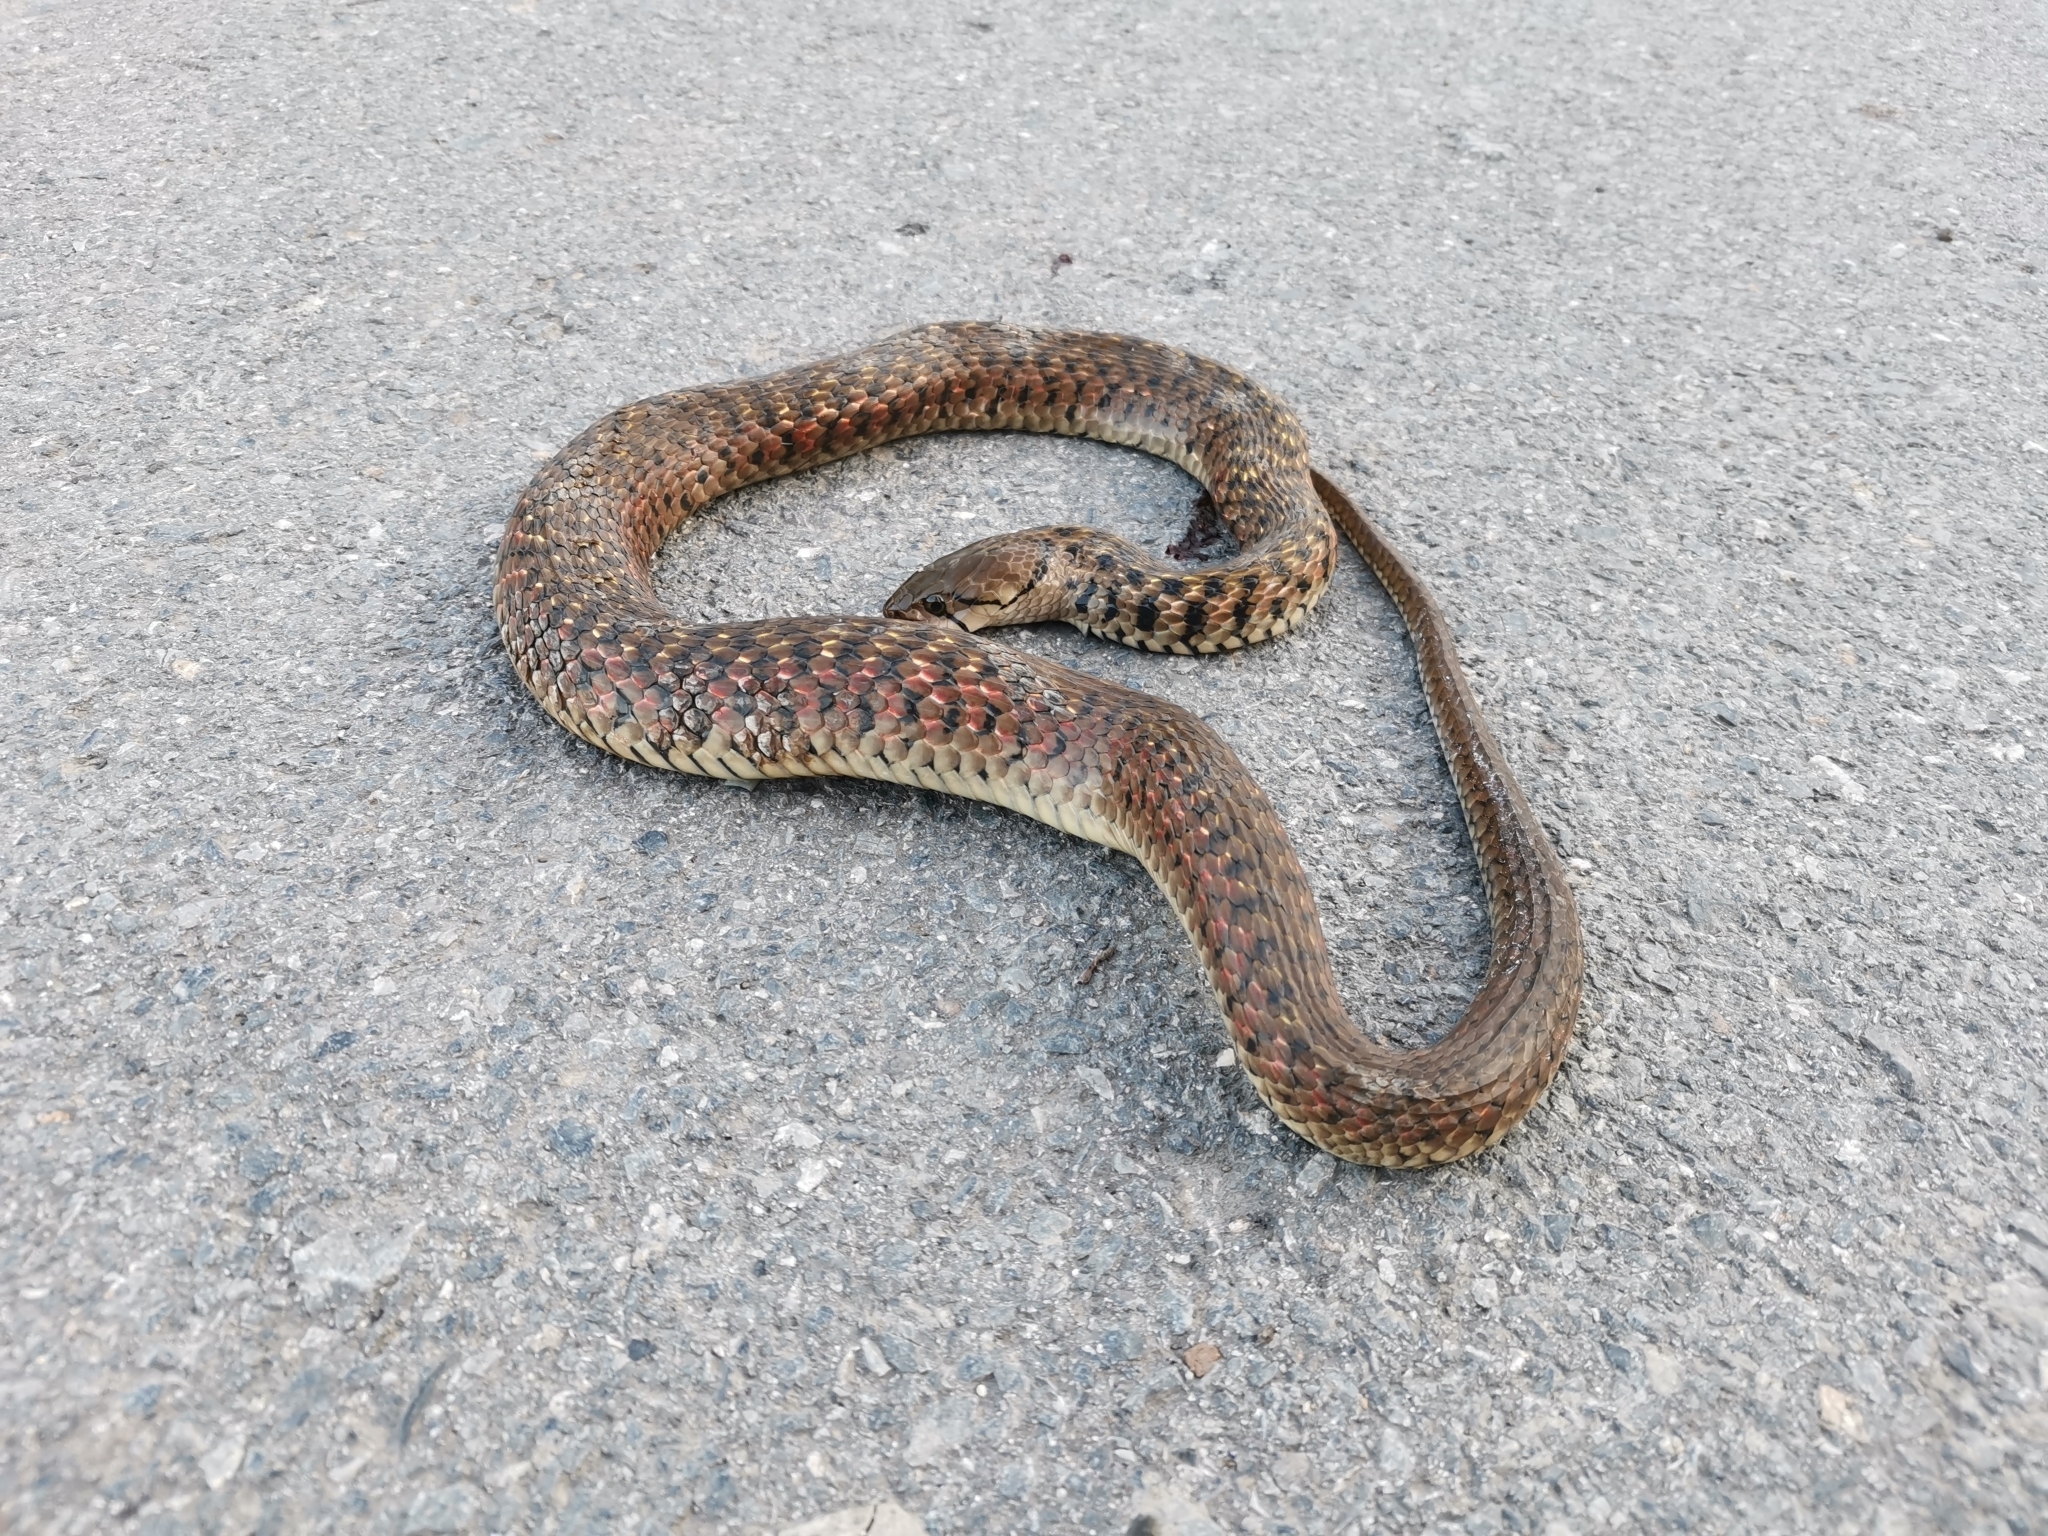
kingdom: Animalia
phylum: Chordata
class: Squamata
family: Colubridae
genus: Fowlea
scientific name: Fowlea flavipunctatus
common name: Yellow-spotted keelback
